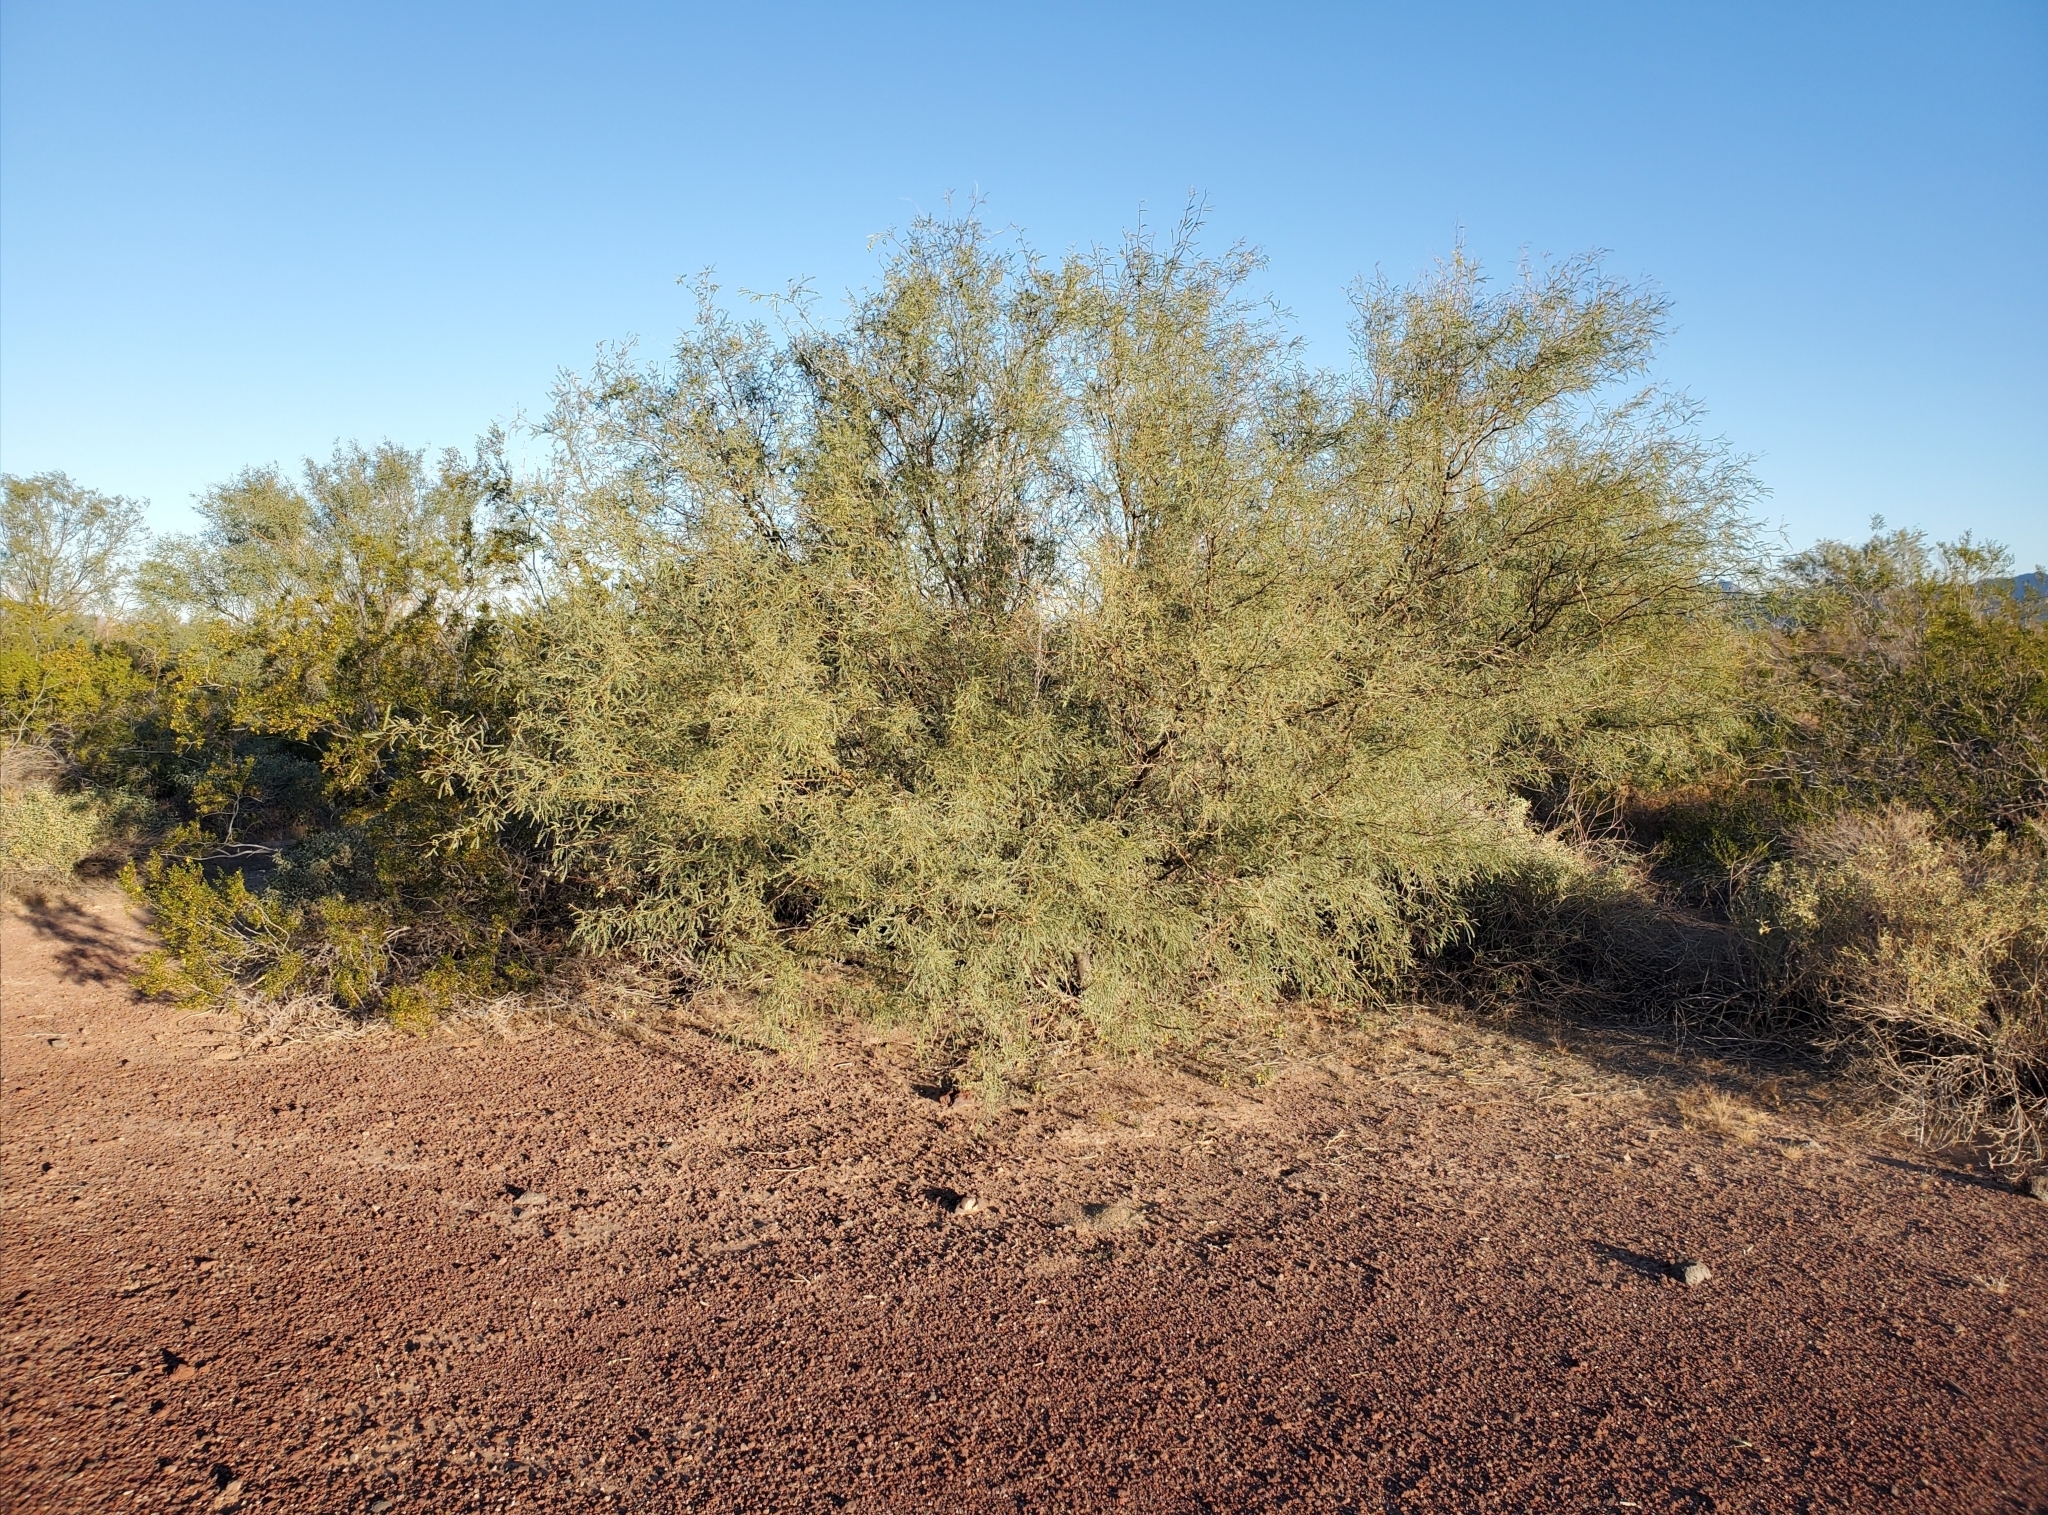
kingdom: Plantae
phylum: Tracheophyta
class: Magnoliopsida
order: Fabales
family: Fabaceae
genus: Prosopis
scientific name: Prosopis velutina
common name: Velvet mesquite
